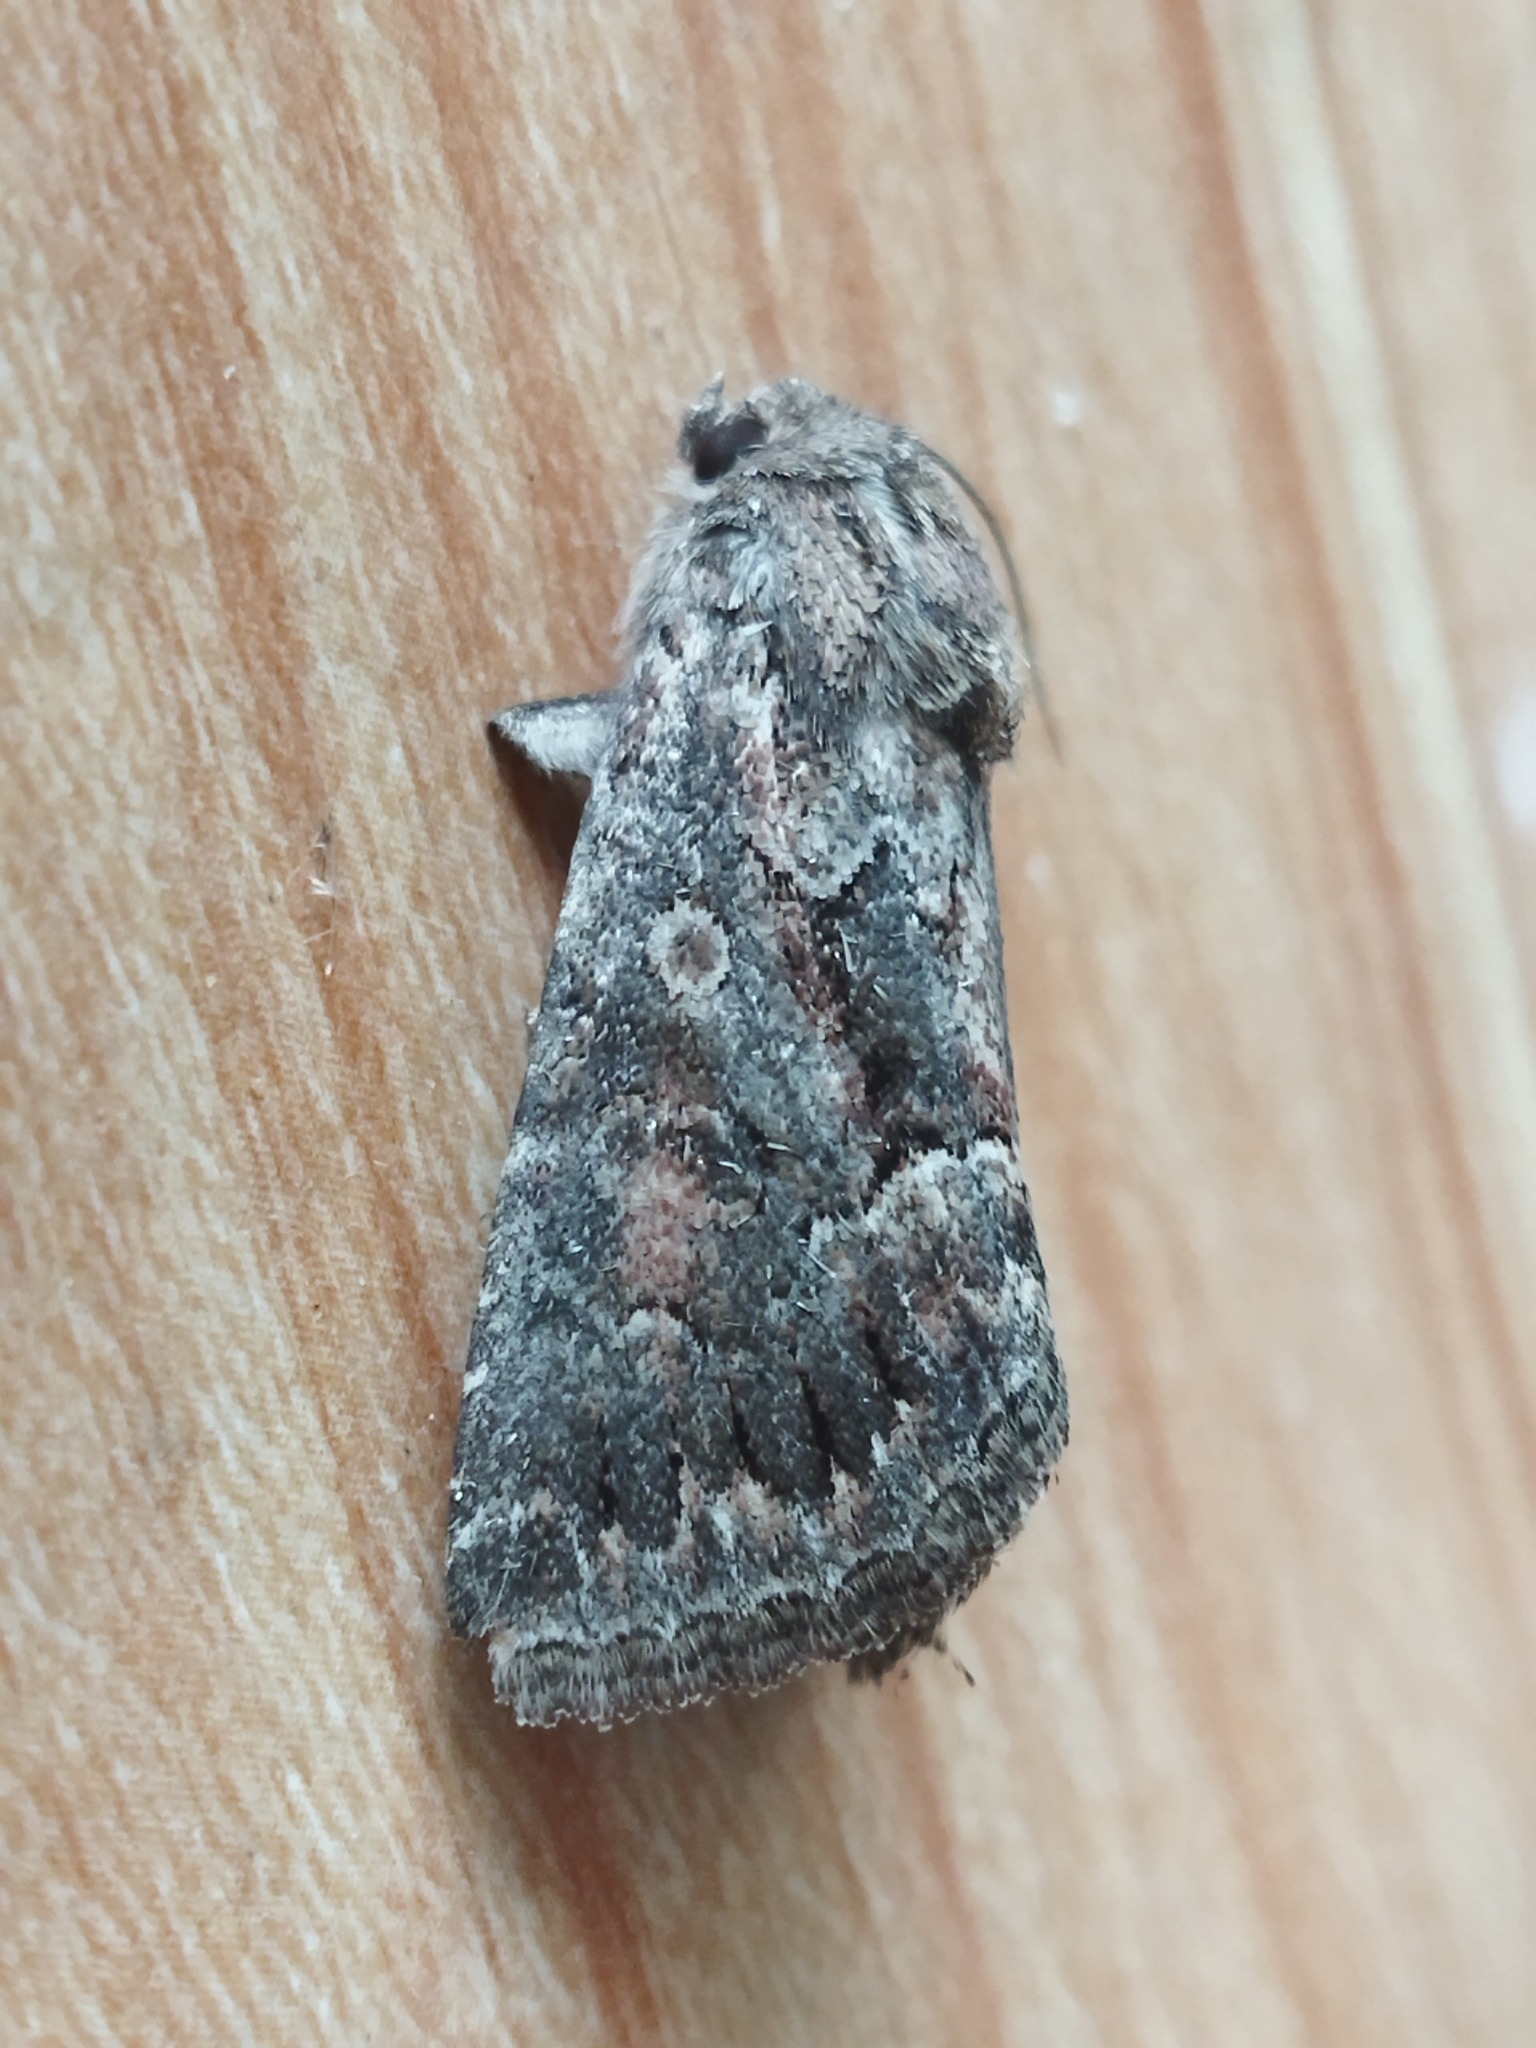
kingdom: Animalia
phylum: Arthropoda
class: Insecta
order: Lepidoptera
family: Noctuidae
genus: Thalpophila
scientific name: Thalpophila matura
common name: Straw underwing
